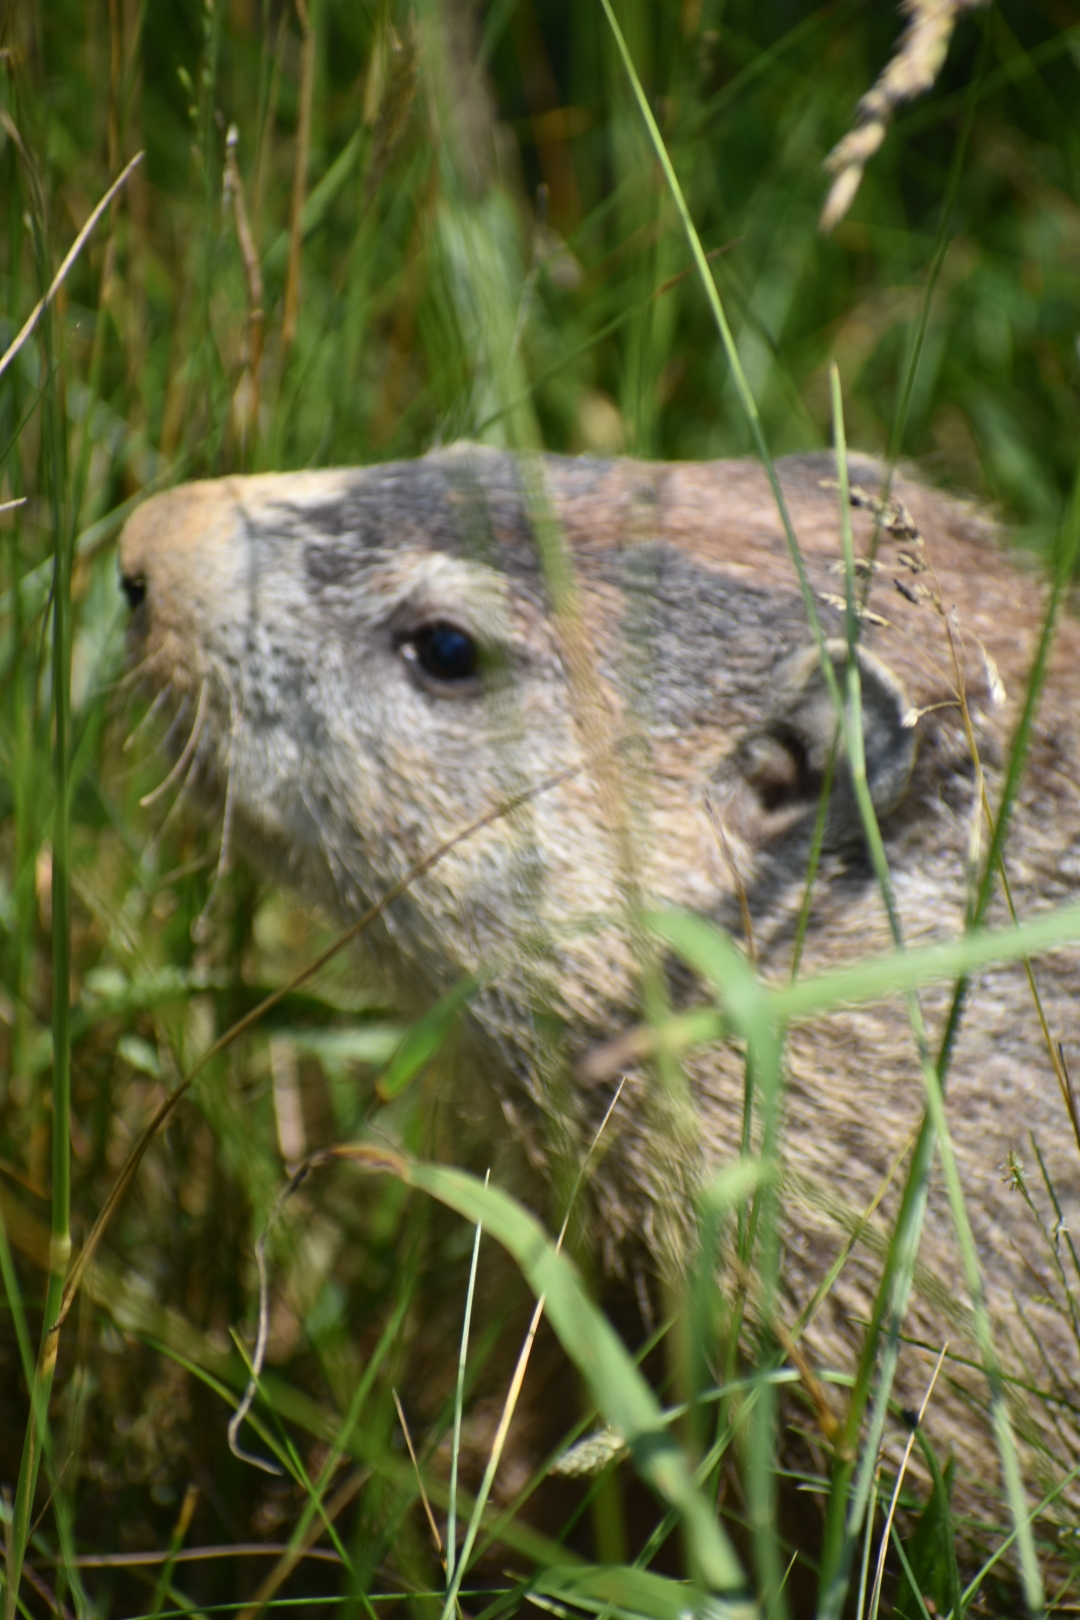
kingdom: Animalia
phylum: Chordata
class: Mammalia
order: Rodentia
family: Sciuridae
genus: Marmota
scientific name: Marmota monax
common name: Groundhog
